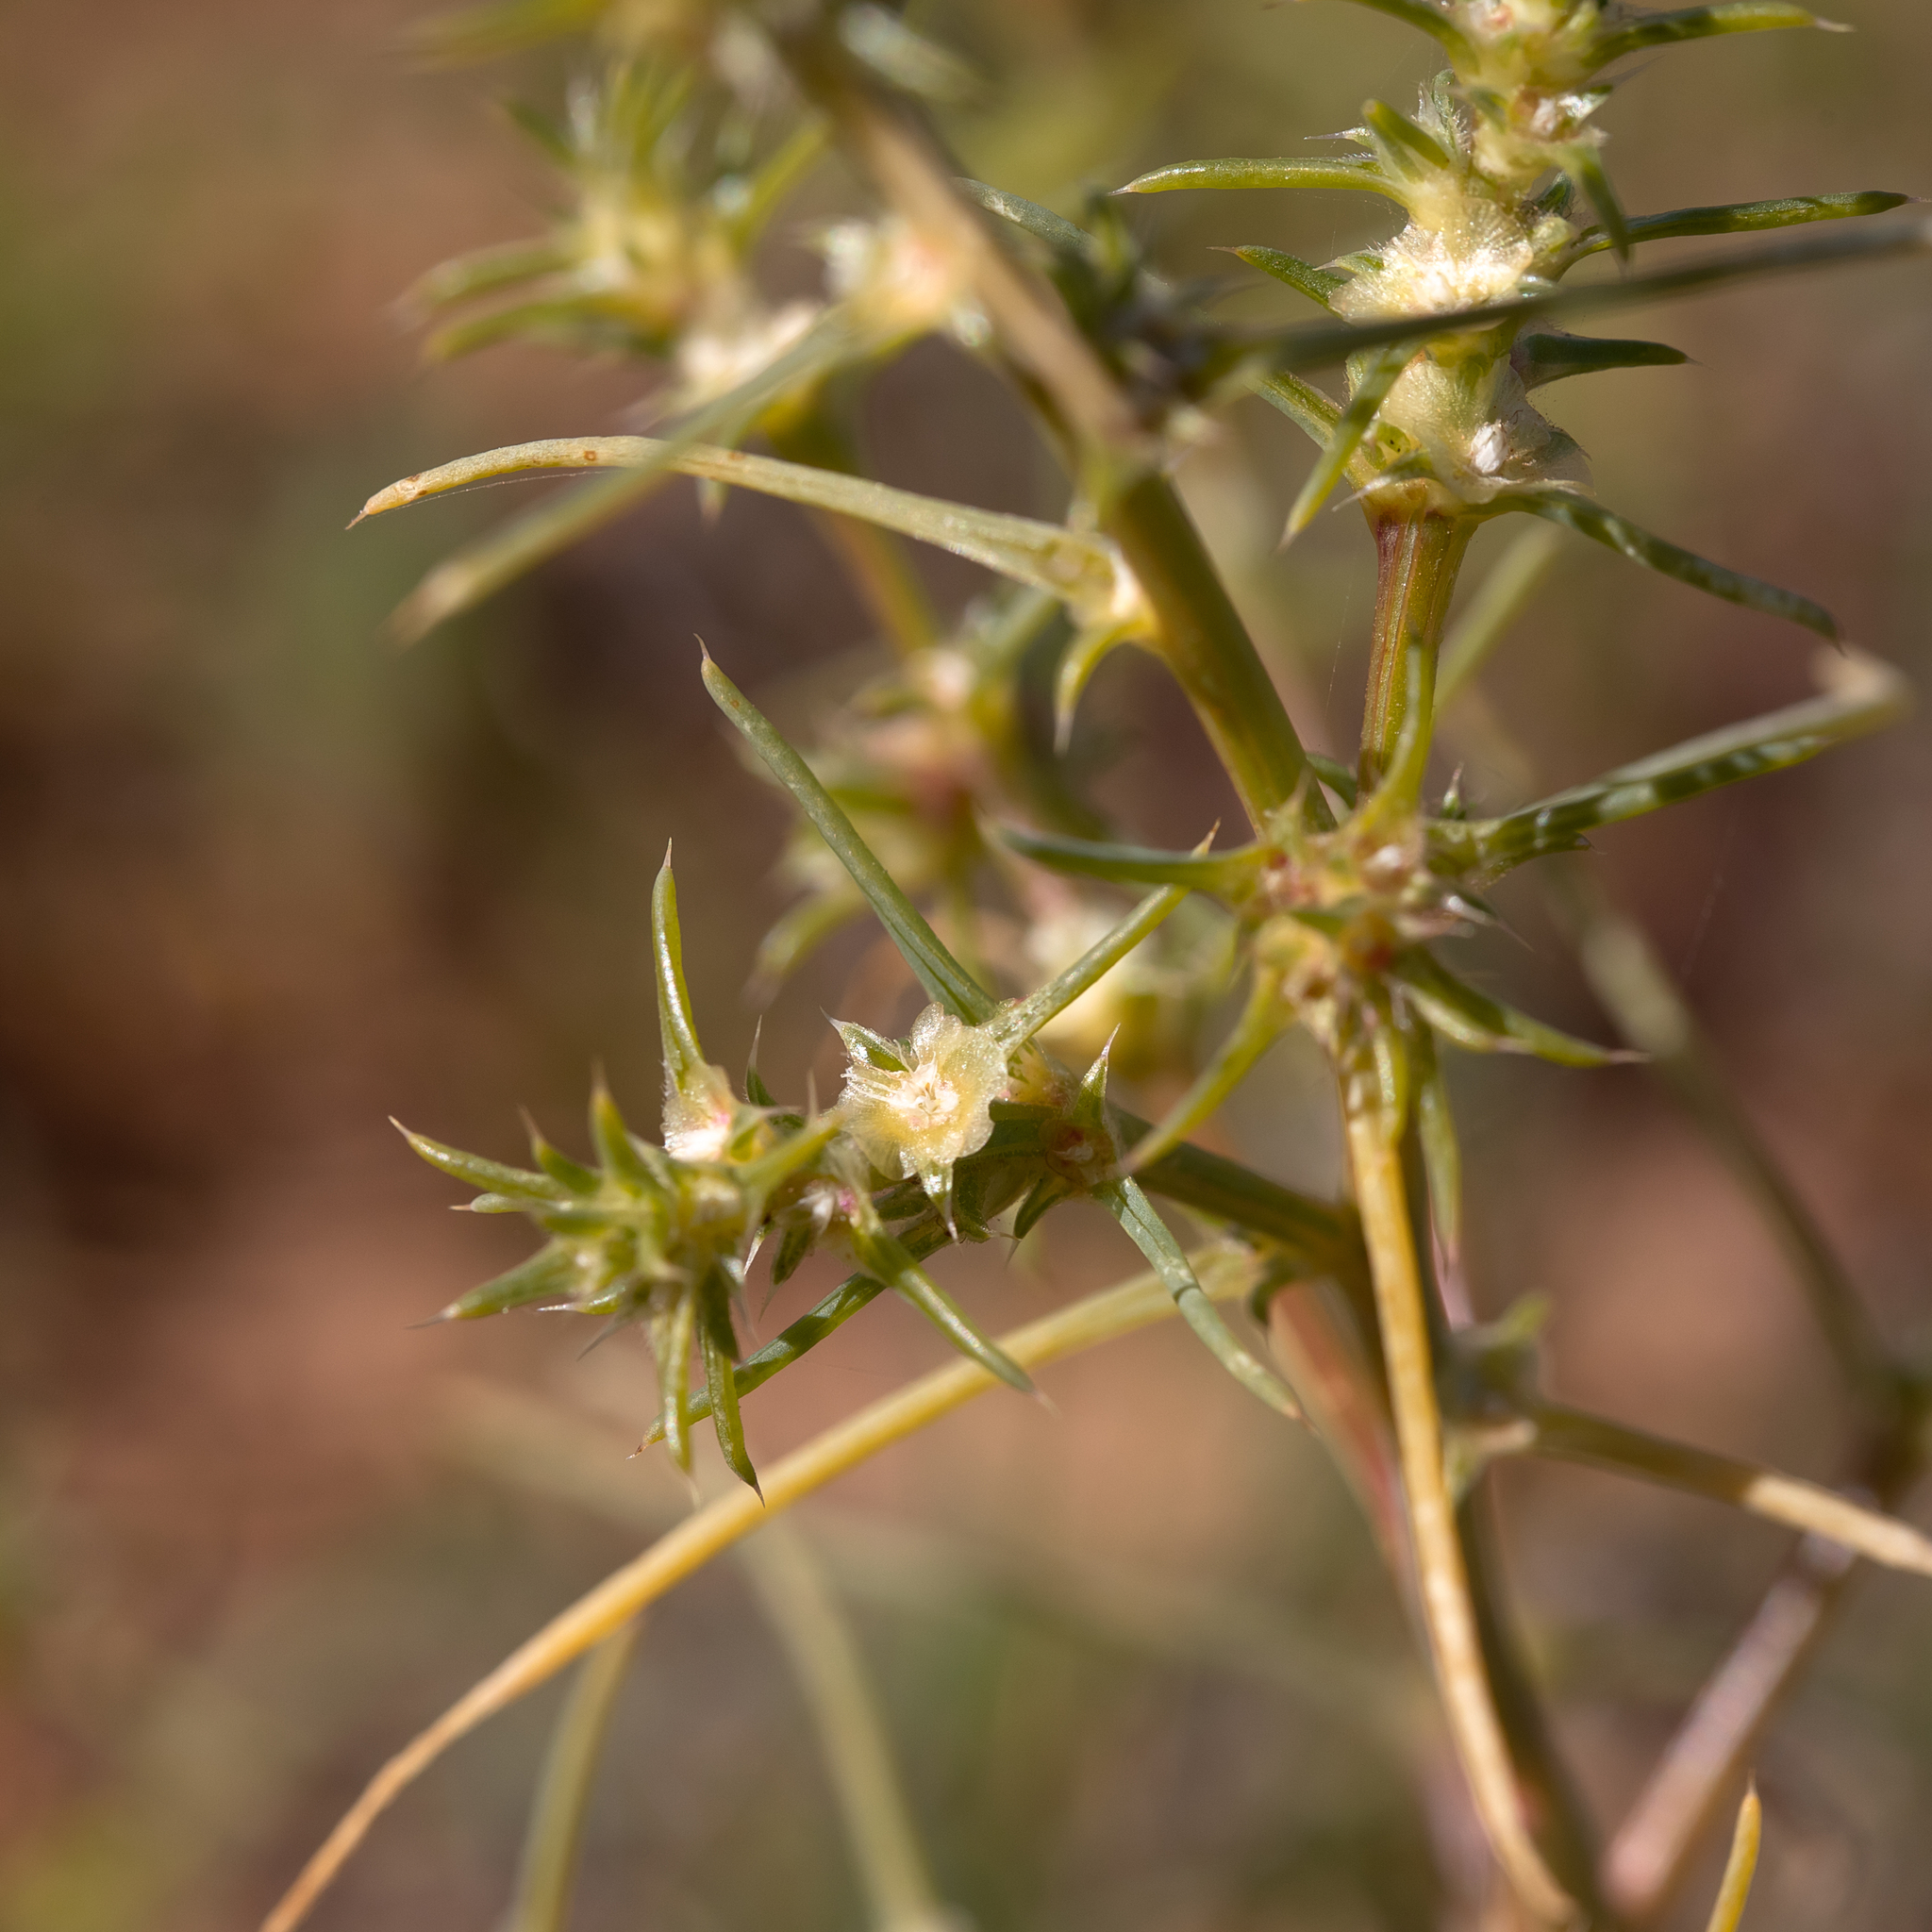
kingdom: Plantae
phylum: Tracheophyta
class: Magnoliopsida
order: Caryophyllales
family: Amaranthaceae
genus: Salsola
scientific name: Salsola australis
